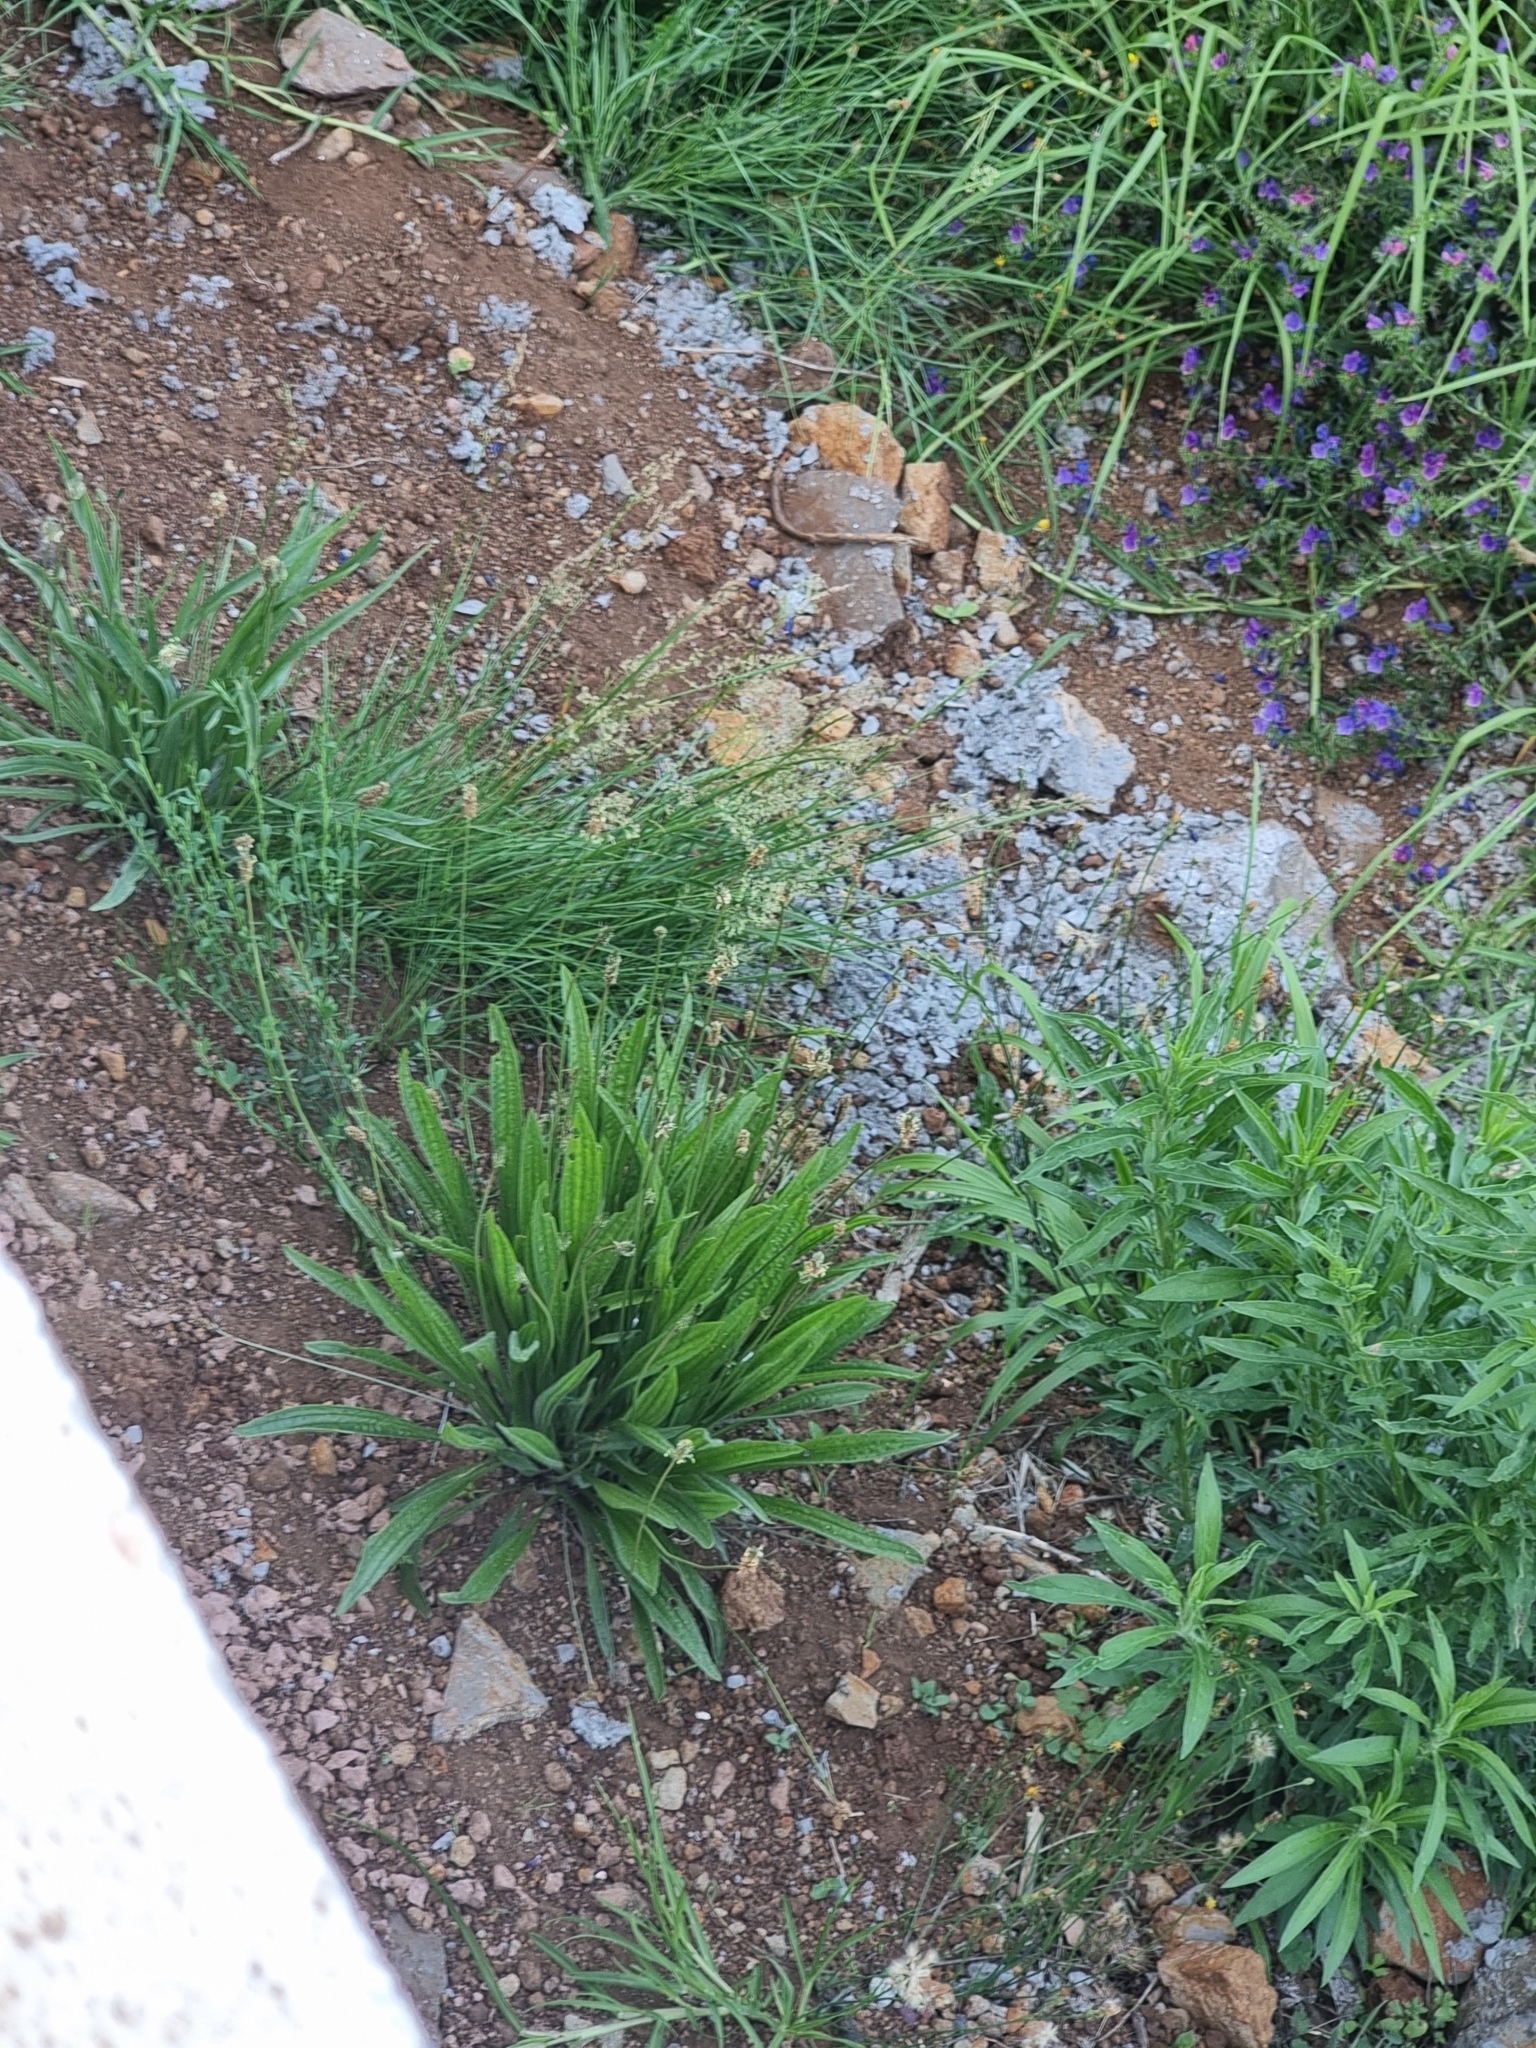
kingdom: Plantae
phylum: Tracheophyta
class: Magnoliopsida
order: Lamiales
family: Plantaginaceae
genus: Plantago
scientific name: Plantago lanceolata
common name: Ribwort plantain
